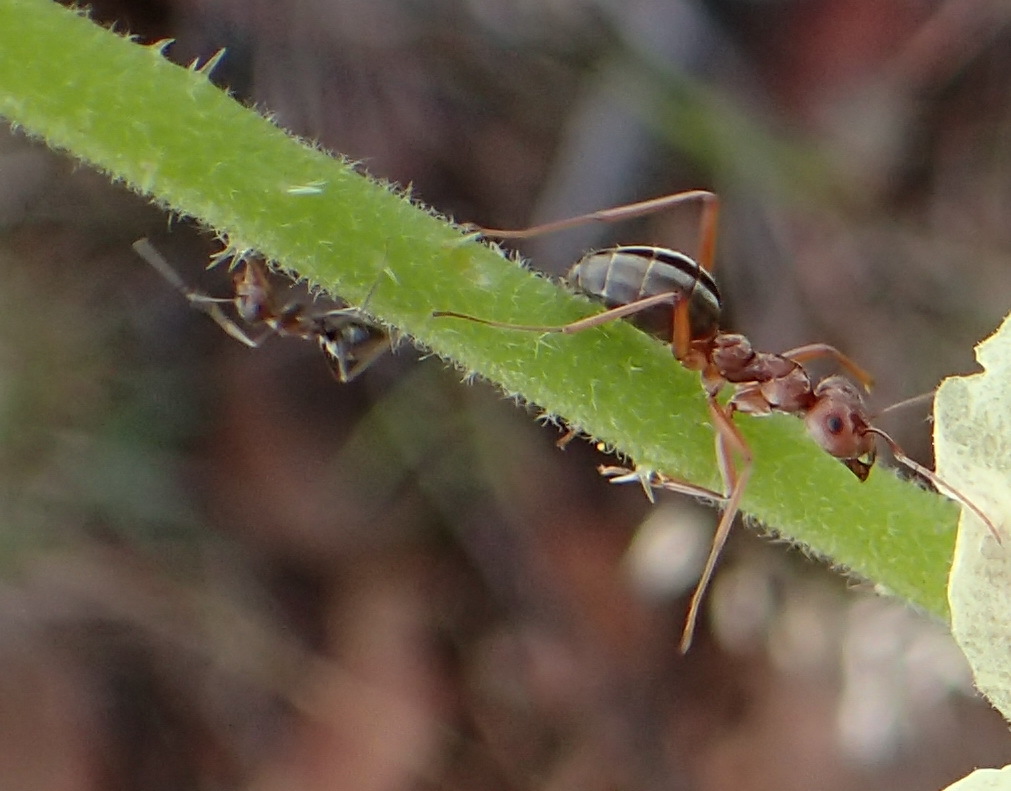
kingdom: Animalia
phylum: Arthropoda
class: Insecta
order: Hymenoptera
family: Formicidae
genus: Anoplolepis
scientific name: Anoplolepis custodiens
